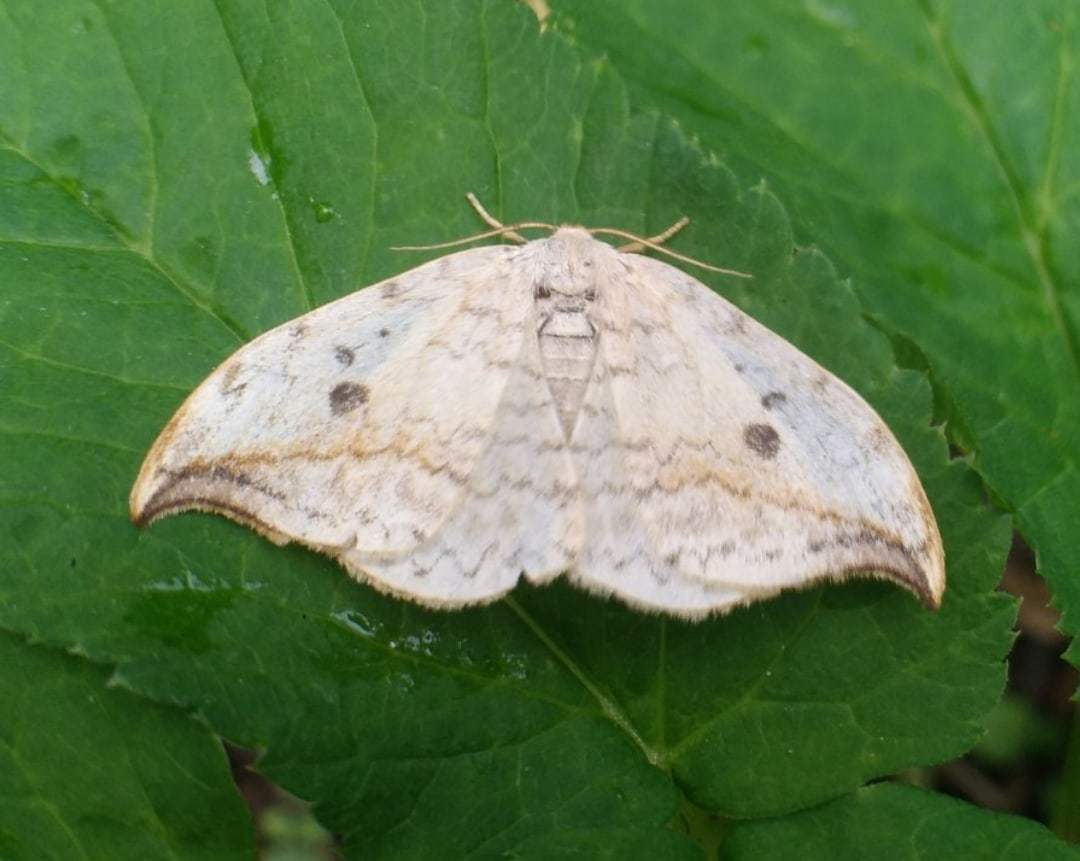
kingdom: Animalia
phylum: Arthropoda
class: Insecta
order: Lepidoptera
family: Drepanidae
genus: Drepana
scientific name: Drepana falcataria
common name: Pebble hook-tip
